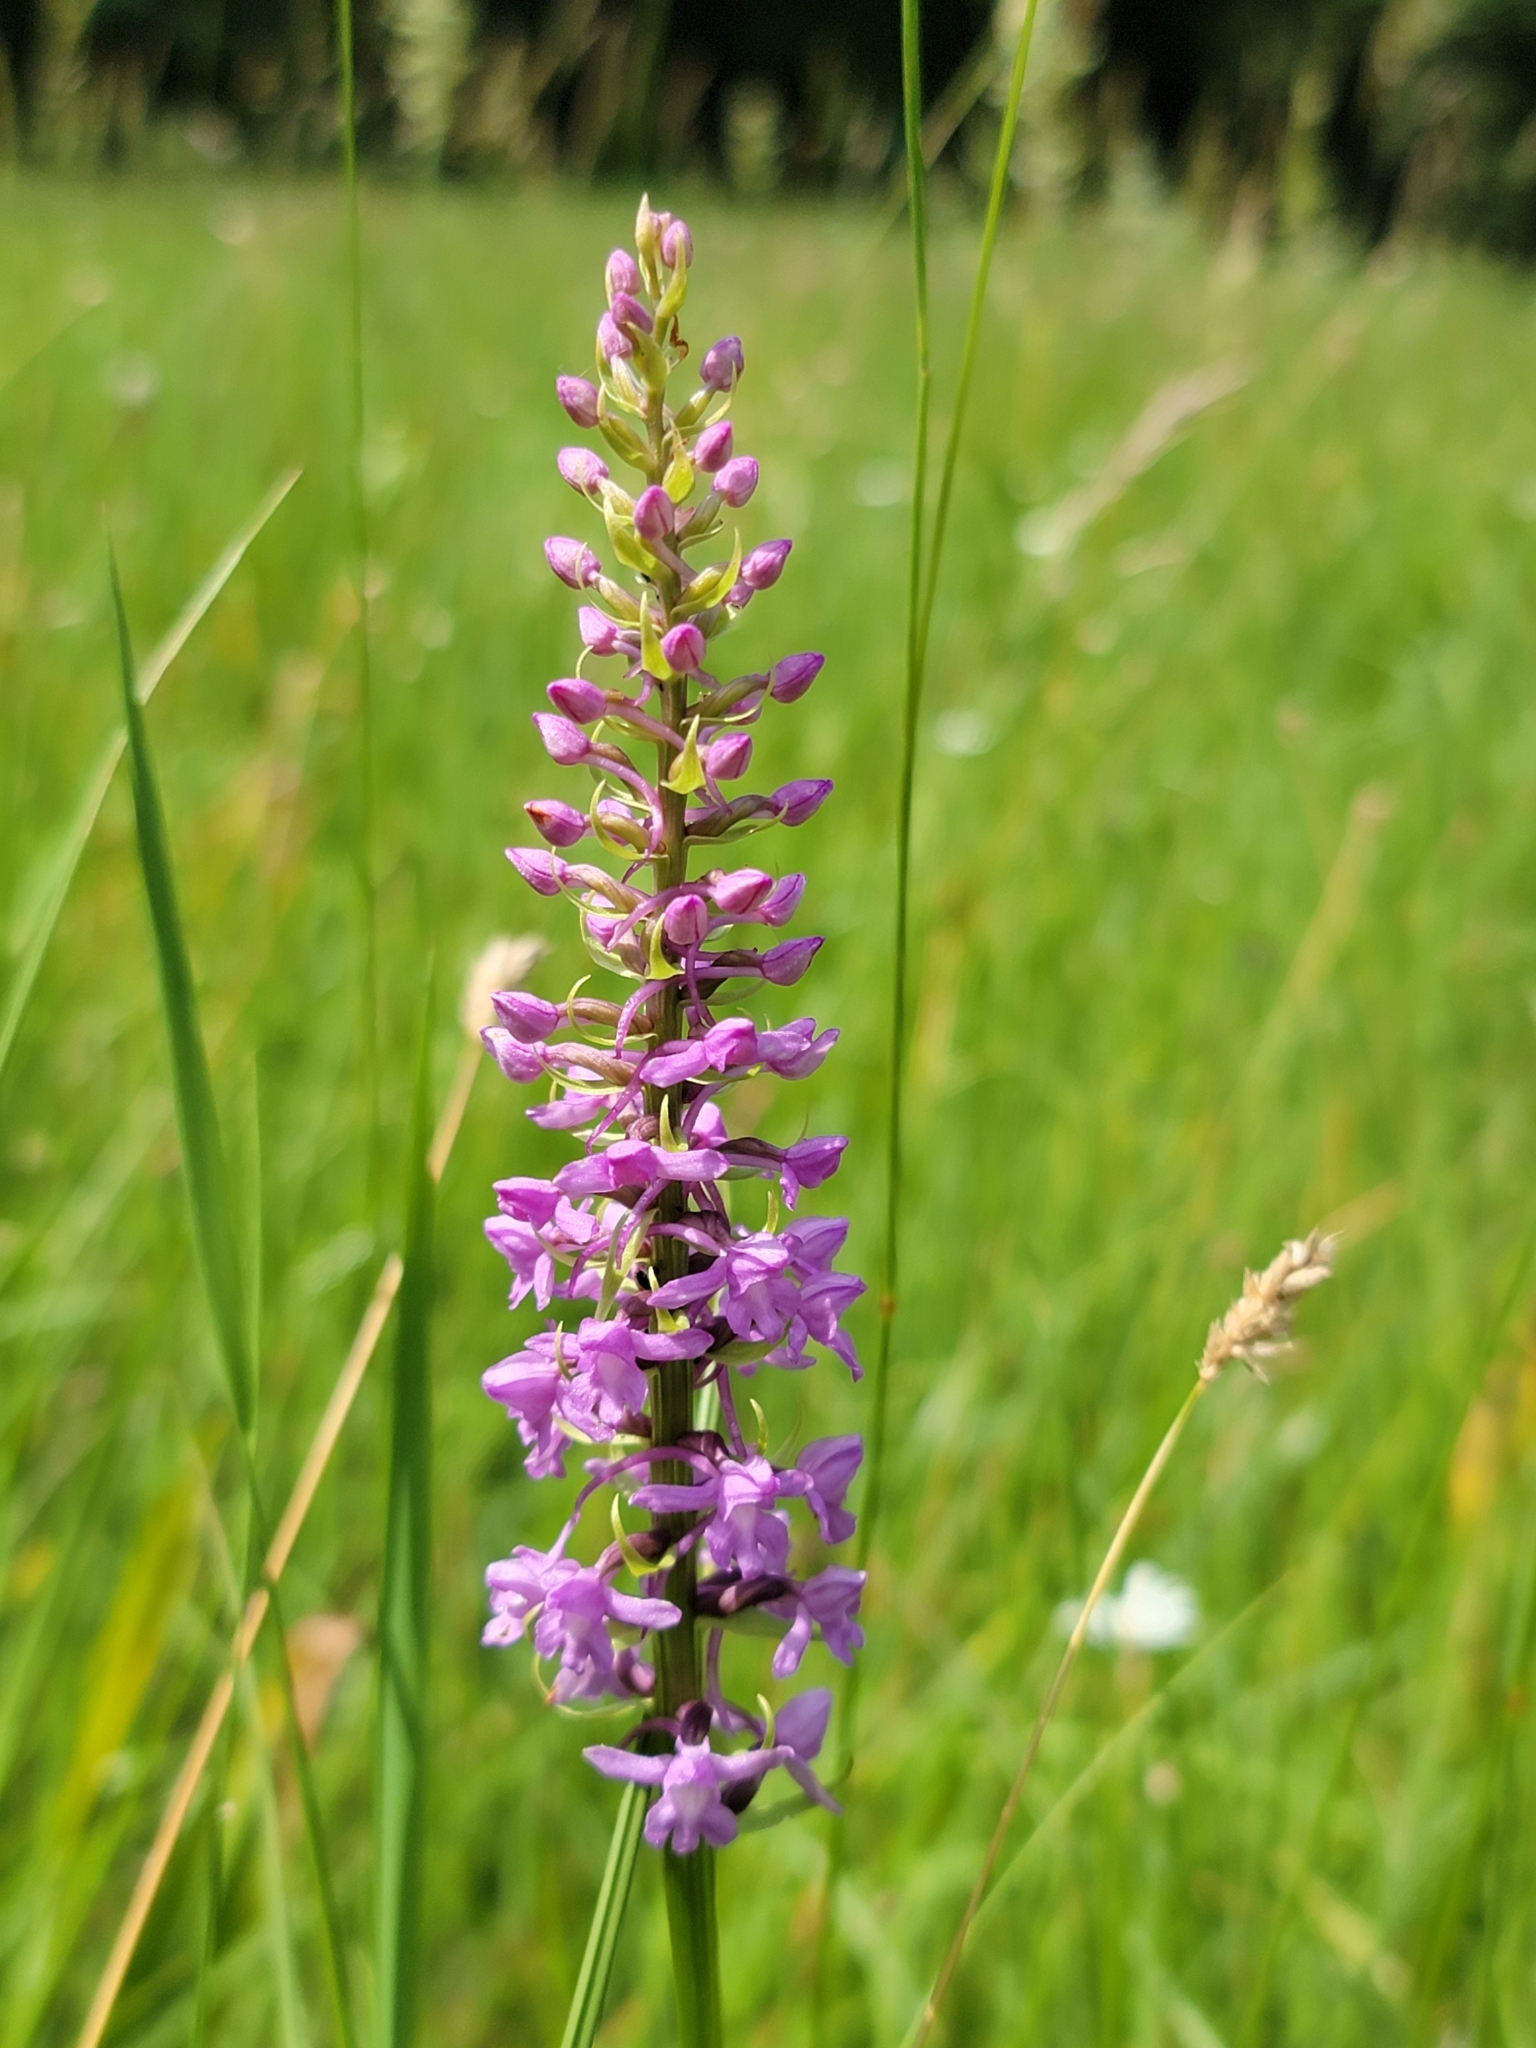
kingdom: Plantae
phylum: Tracheophyta
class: Liliopsida
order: Asparagales
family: Orchidaceae
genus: Gymnadenia
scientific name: Gymnadenia conopsea
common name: Fragrant orchid
